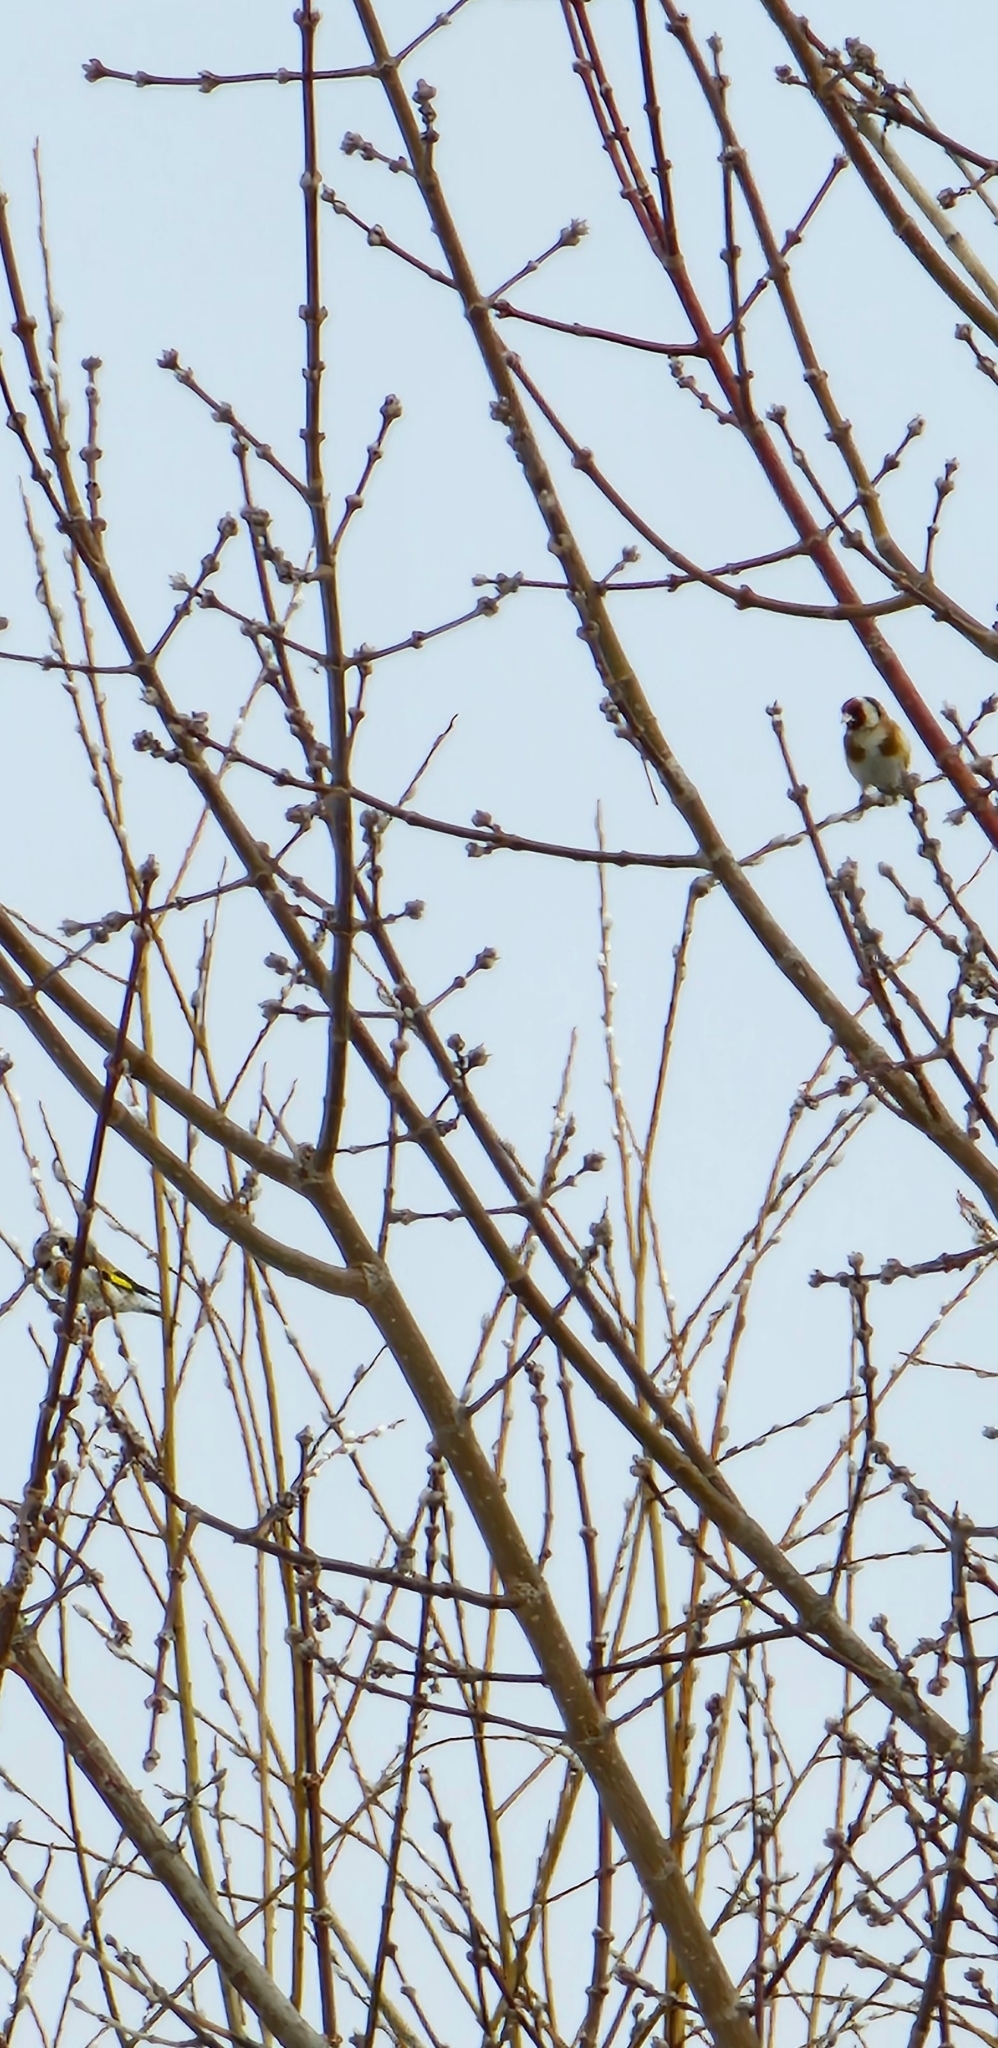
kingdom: Animalia
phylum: Chordata
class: Aves
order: Passeriformes
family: Fringillidae
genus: Carduelis
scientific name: Carduelis carduelis
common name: European goldfinch
